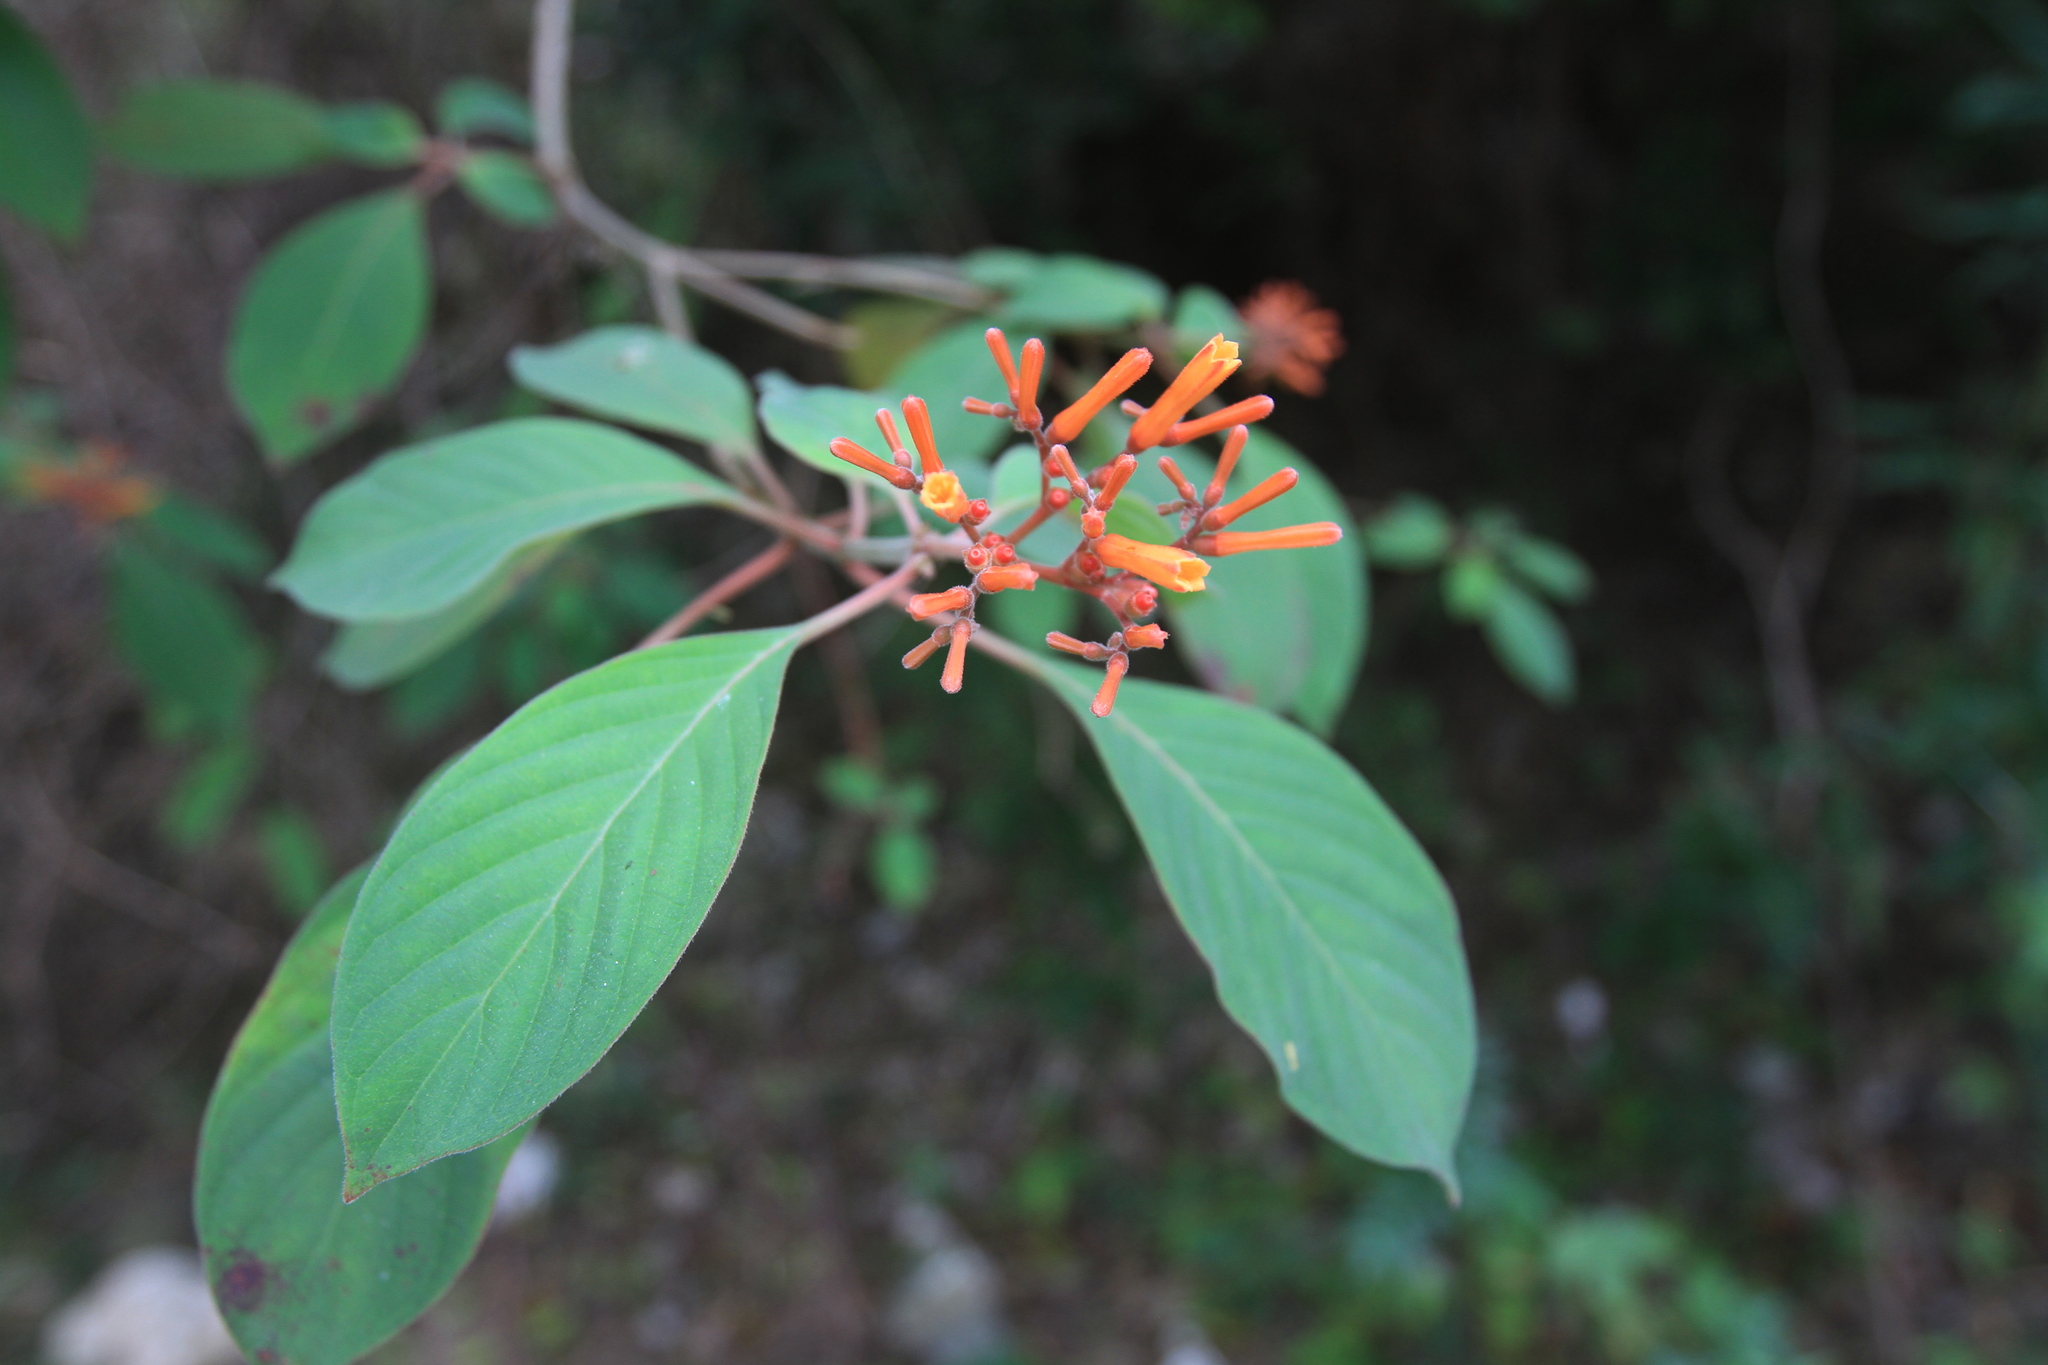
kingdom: Plantae
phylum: Tracheophyta
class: Magnoliopsida
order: Gentianales
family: Rubiaceae
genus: Hamelia
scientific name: Hamelia patens
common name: Redhead
